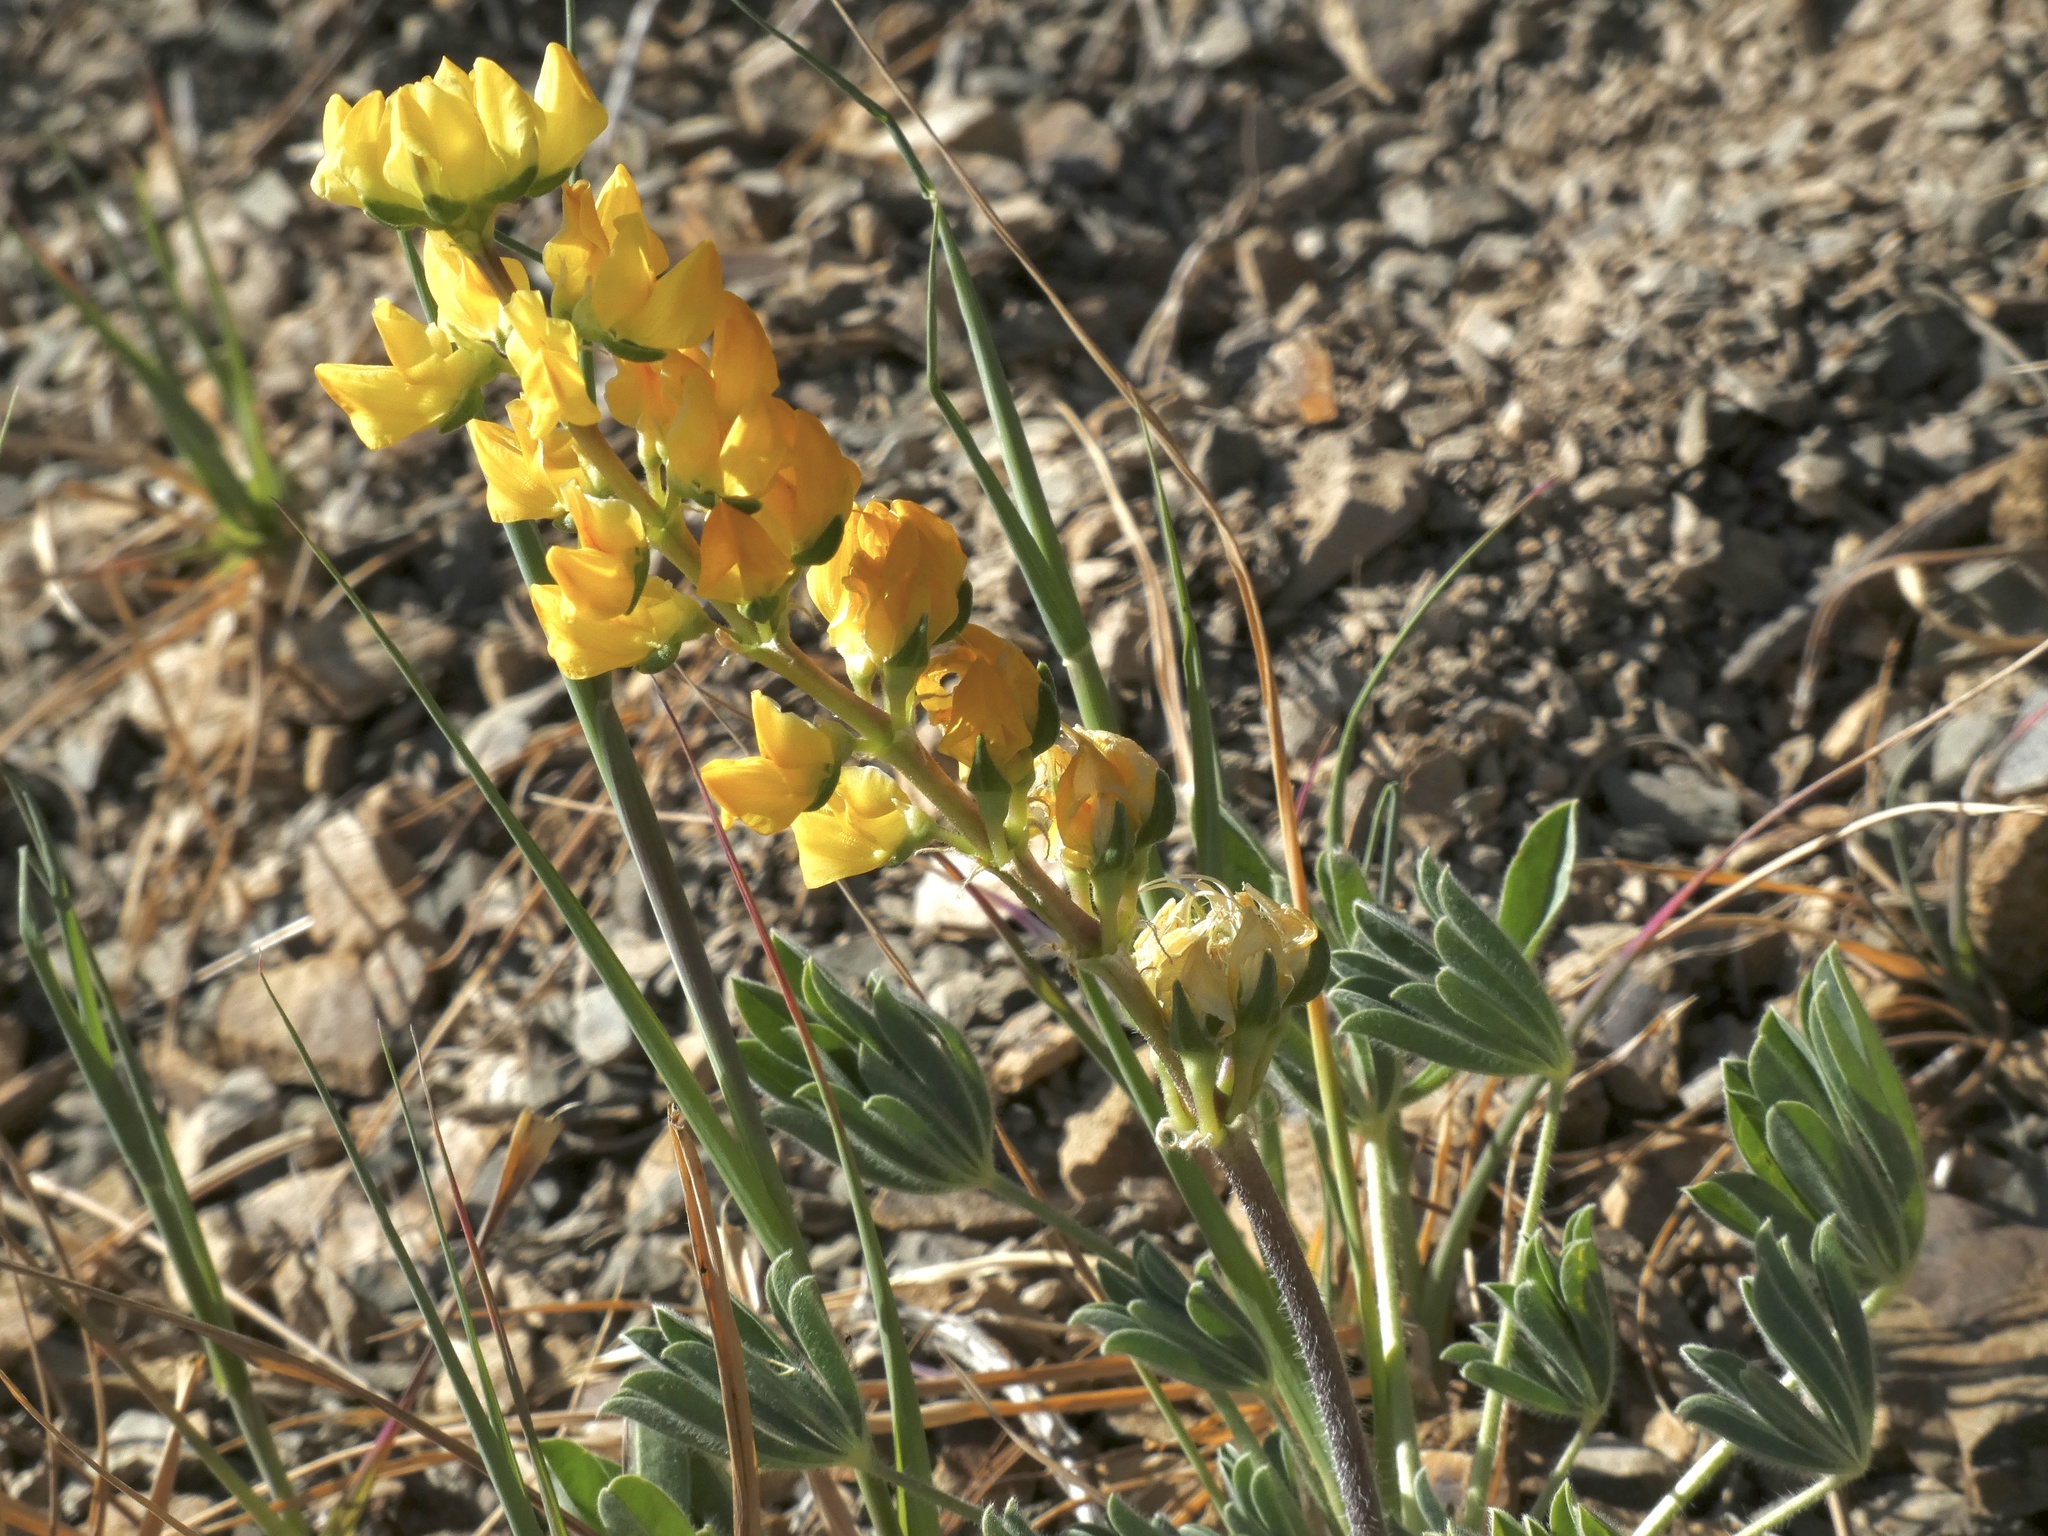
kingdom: Plantae
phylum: Tracheophyta
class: Magnoliopsida
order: Fabales
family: Fabaceae
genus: Lupinus
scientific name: Lupinus microcarpus
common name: Chick lupine
